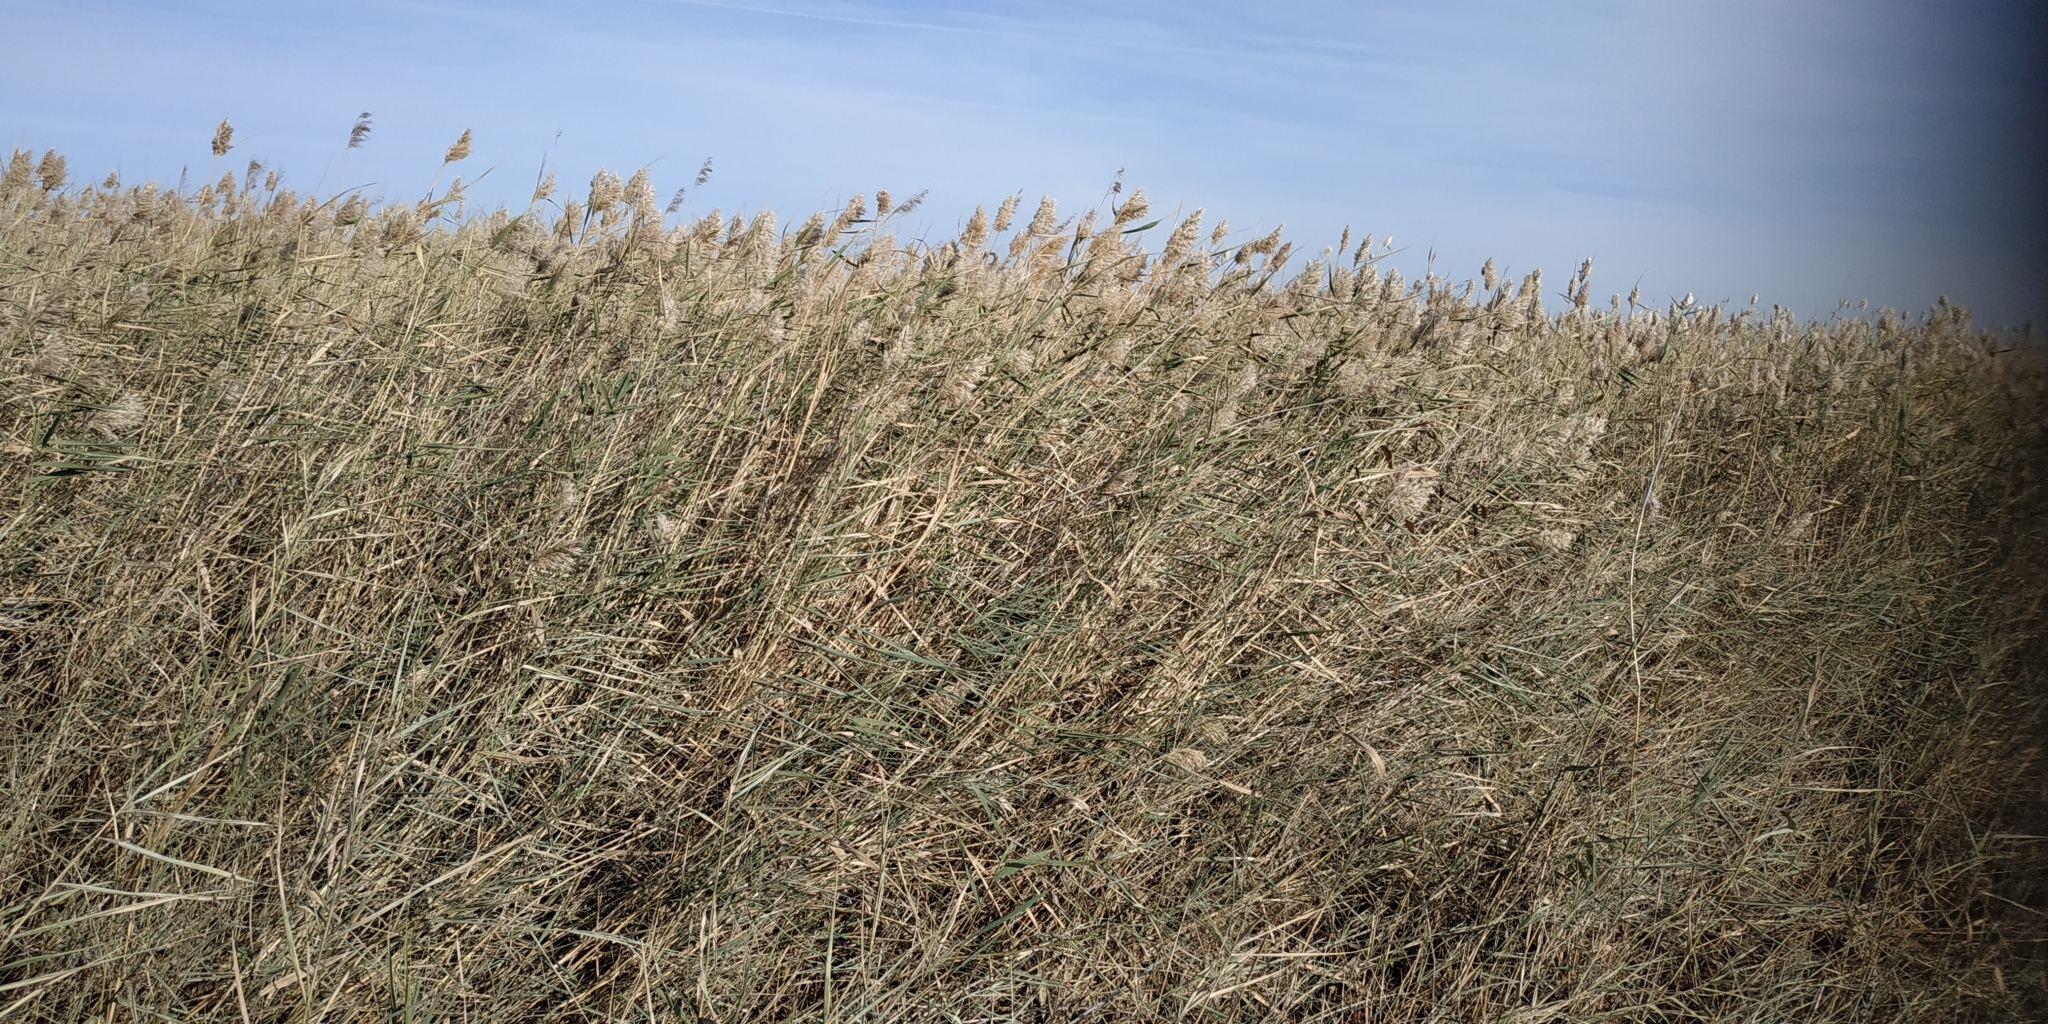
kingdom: Plantae
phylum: Tracheophyta
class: Liliopsida
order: Poales
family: Poaceae
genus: Phragmites
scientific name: Phragmites australis
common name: Common reed
